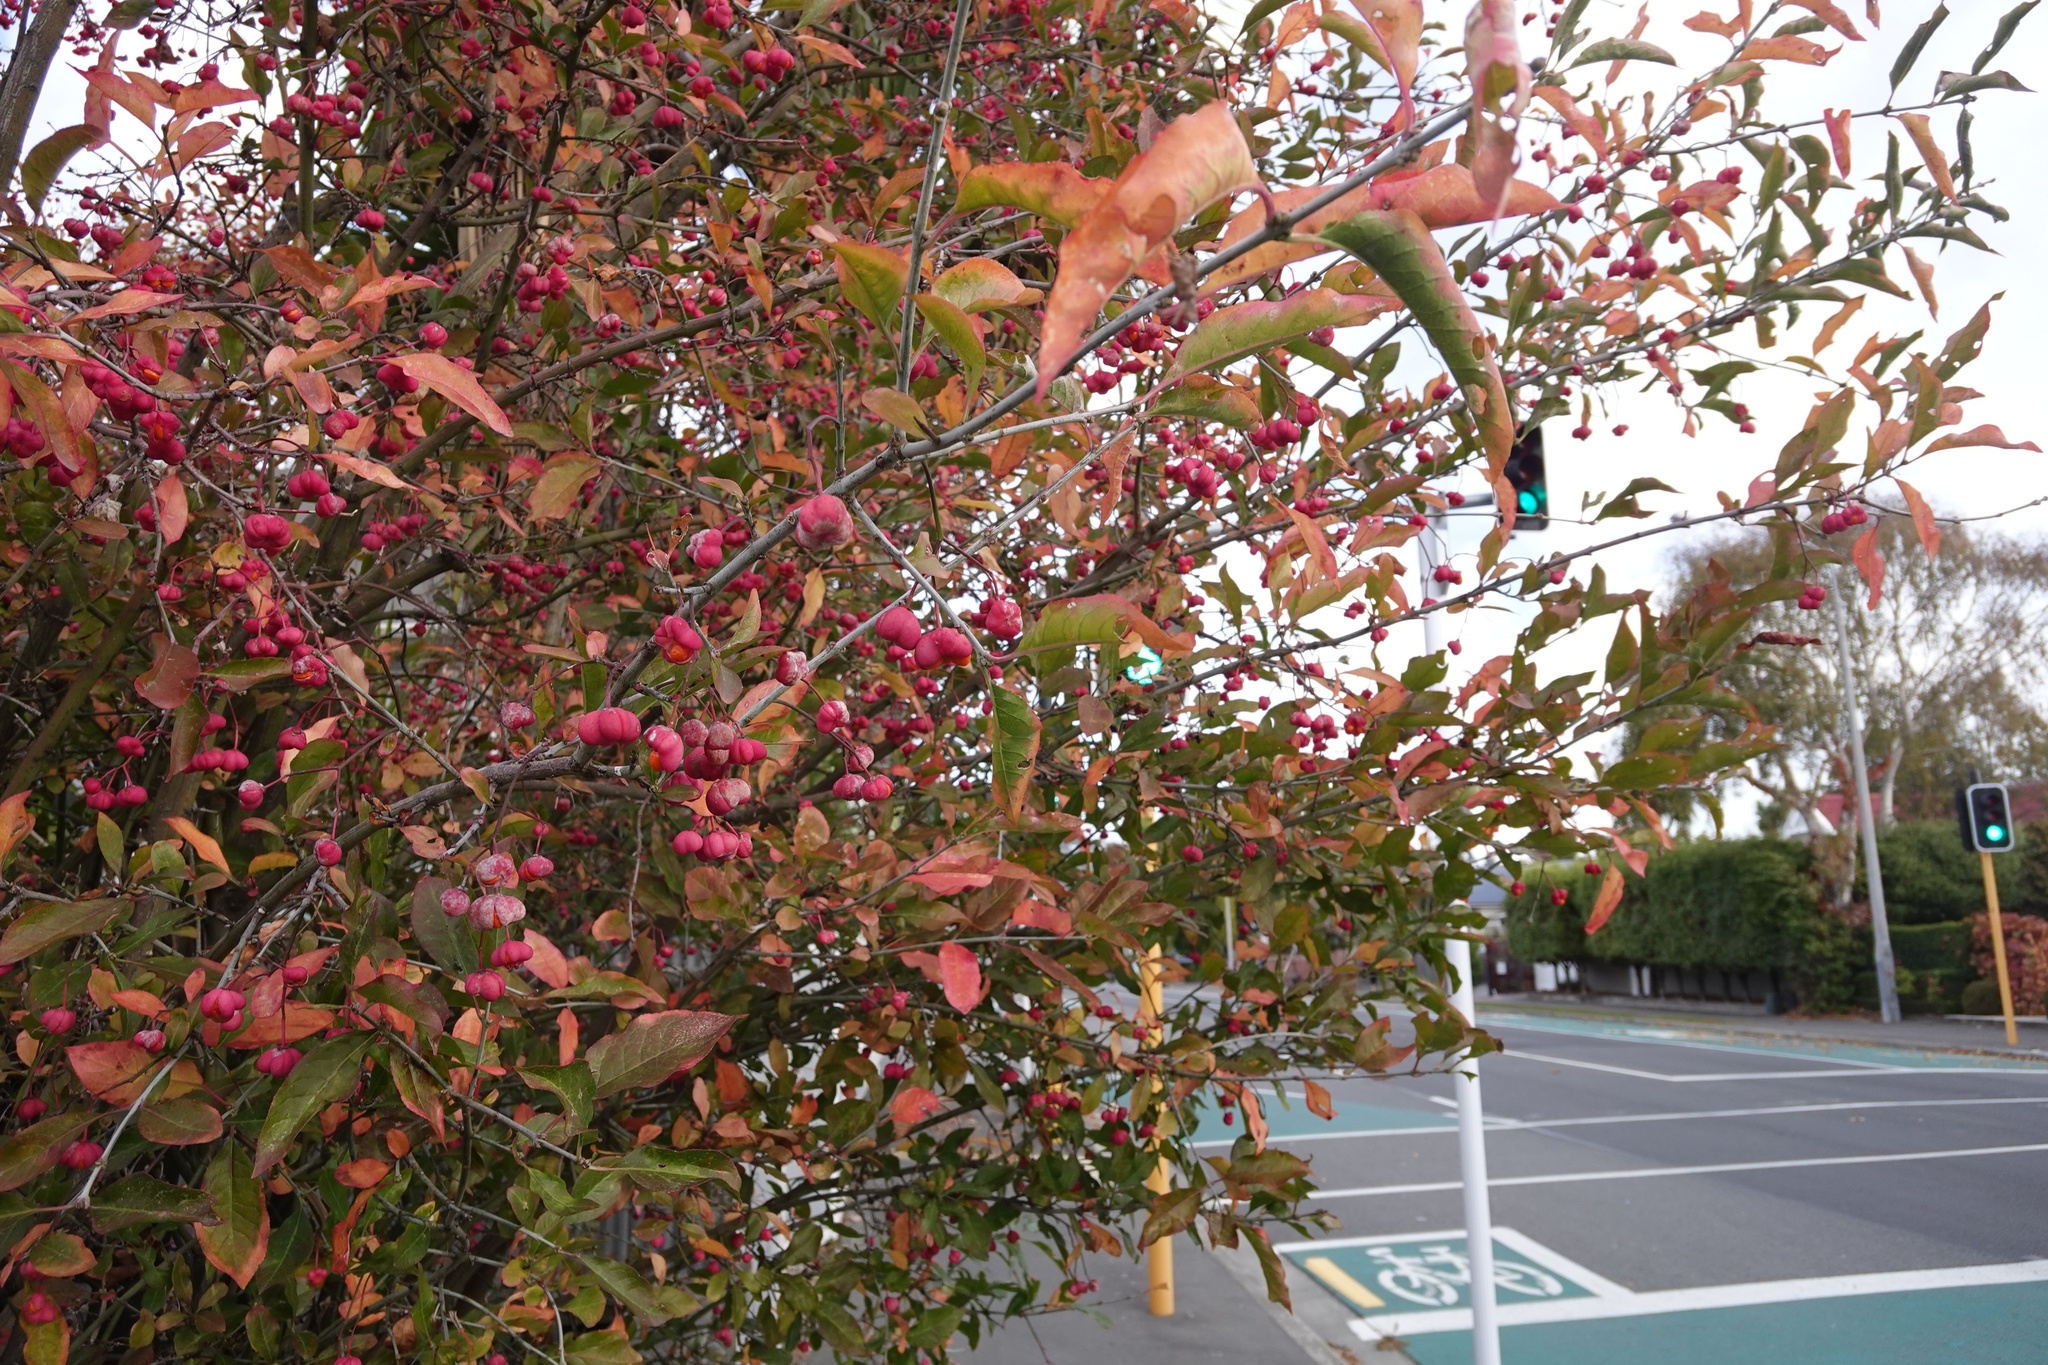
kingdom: Plantae
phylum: Tracheophyta
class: Magnoliopsida
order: Celastrales
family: Celastraceae
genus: Euonymus
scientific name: Euonymus europaeus
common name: Spindle
